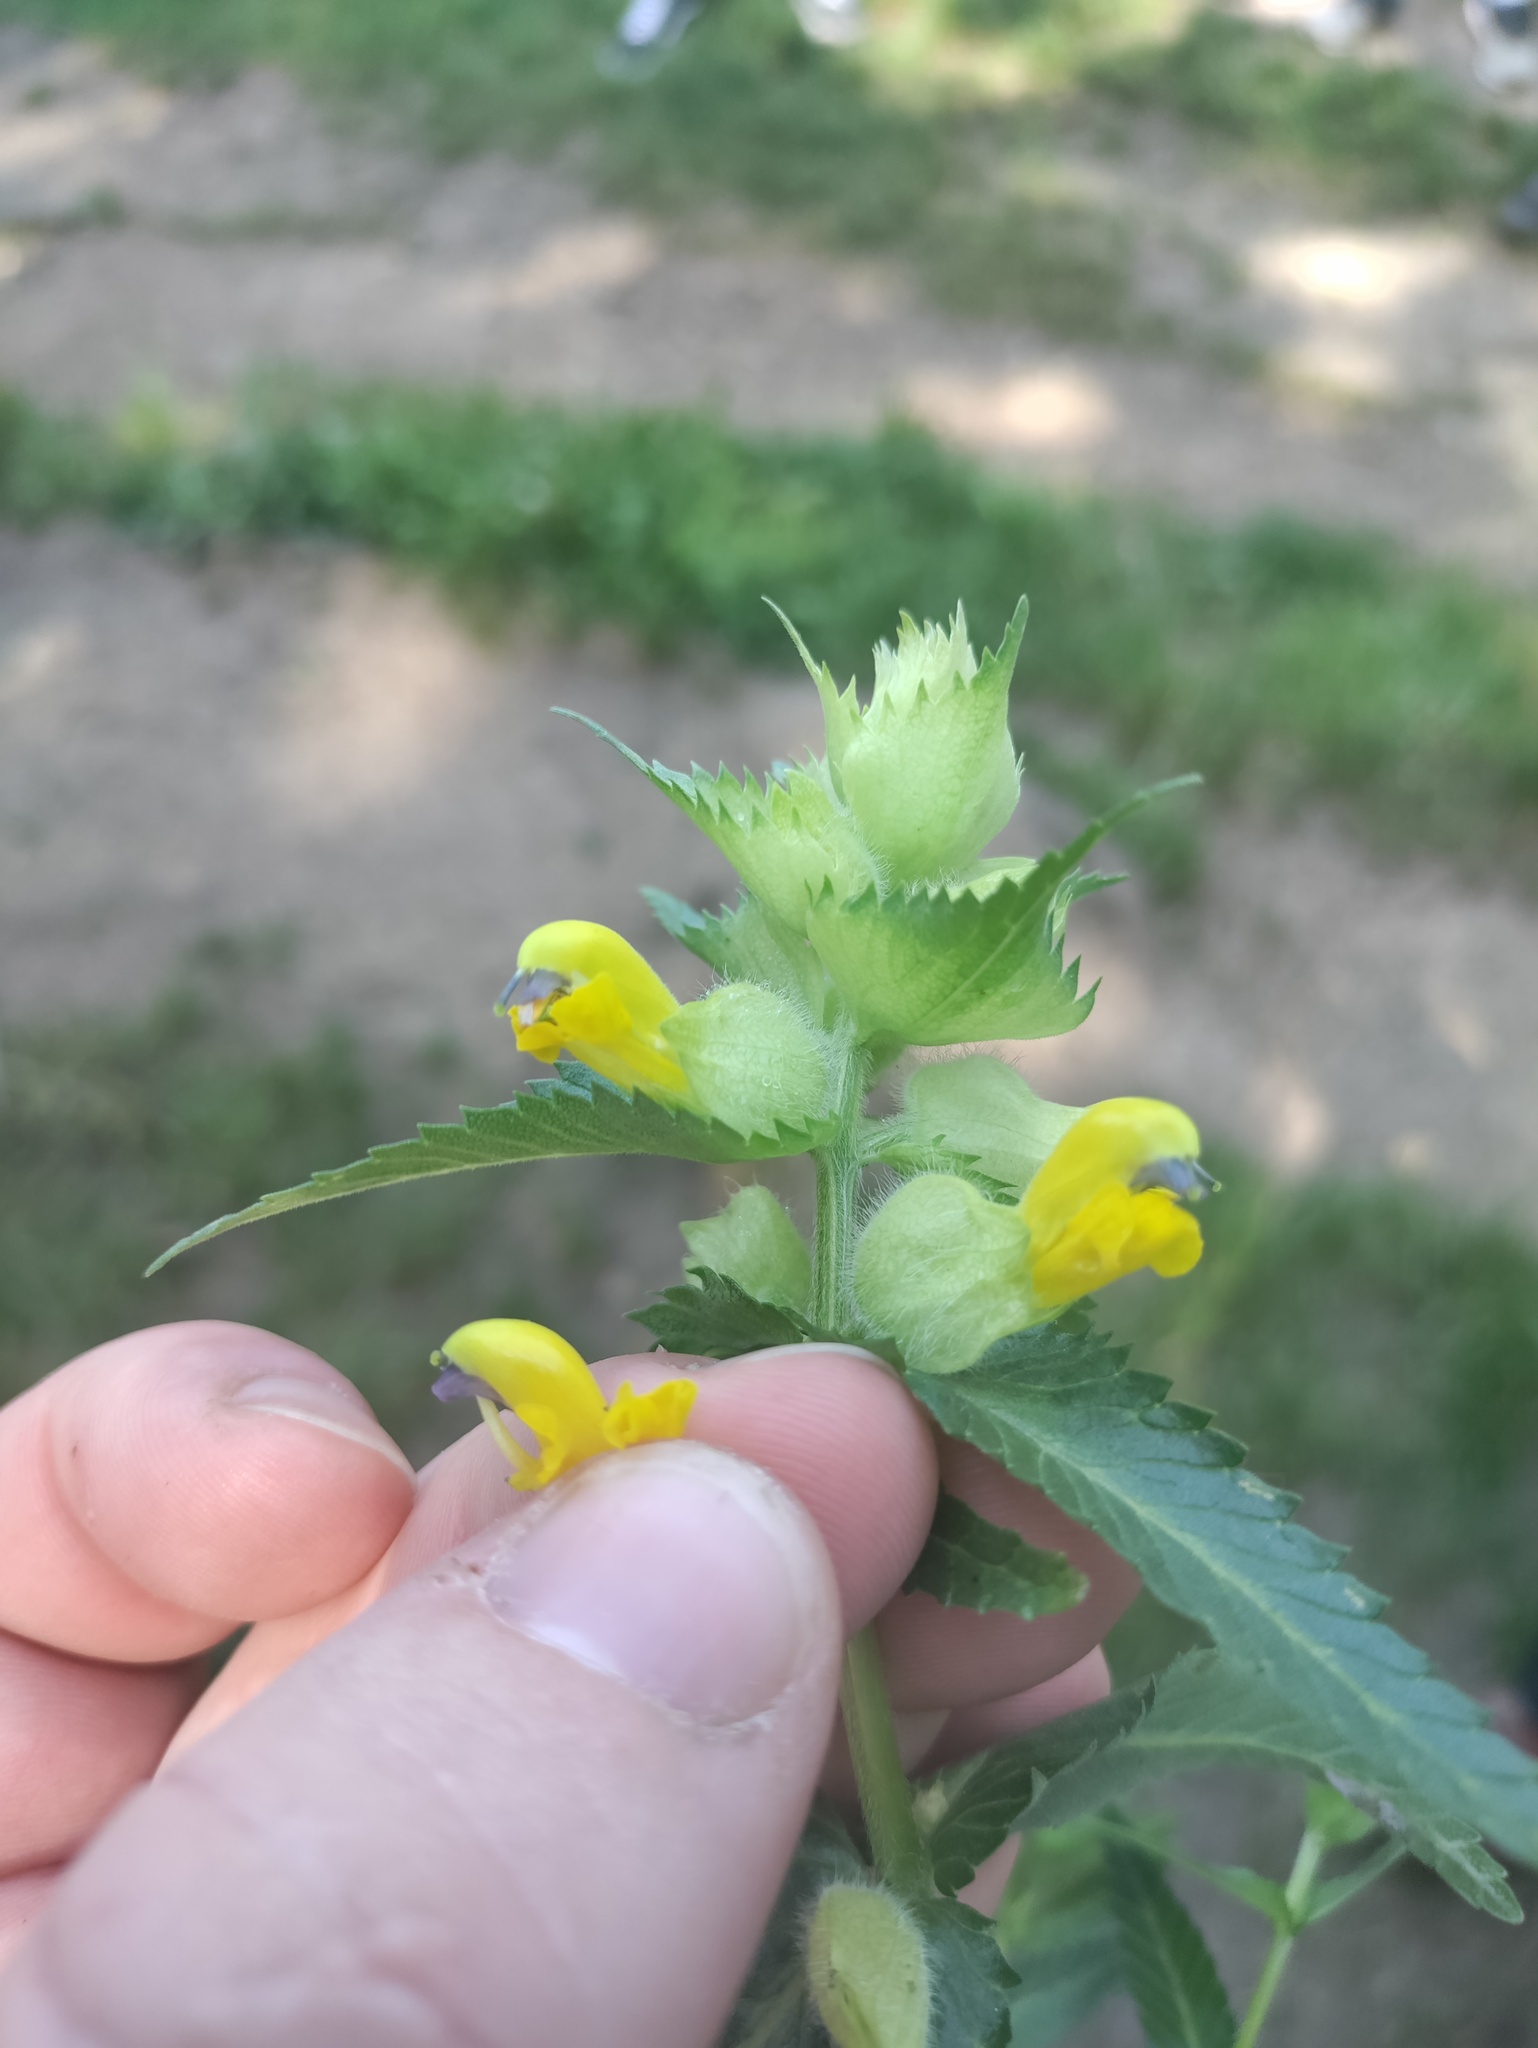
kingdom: Plantae
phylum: Tracheophyta
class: Magnoliopsida
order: Lamiales
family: Orobanchaceae
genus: Rhinanthus
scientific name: Rhinanthus alectorolophus
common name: Greater yellow-rattle
